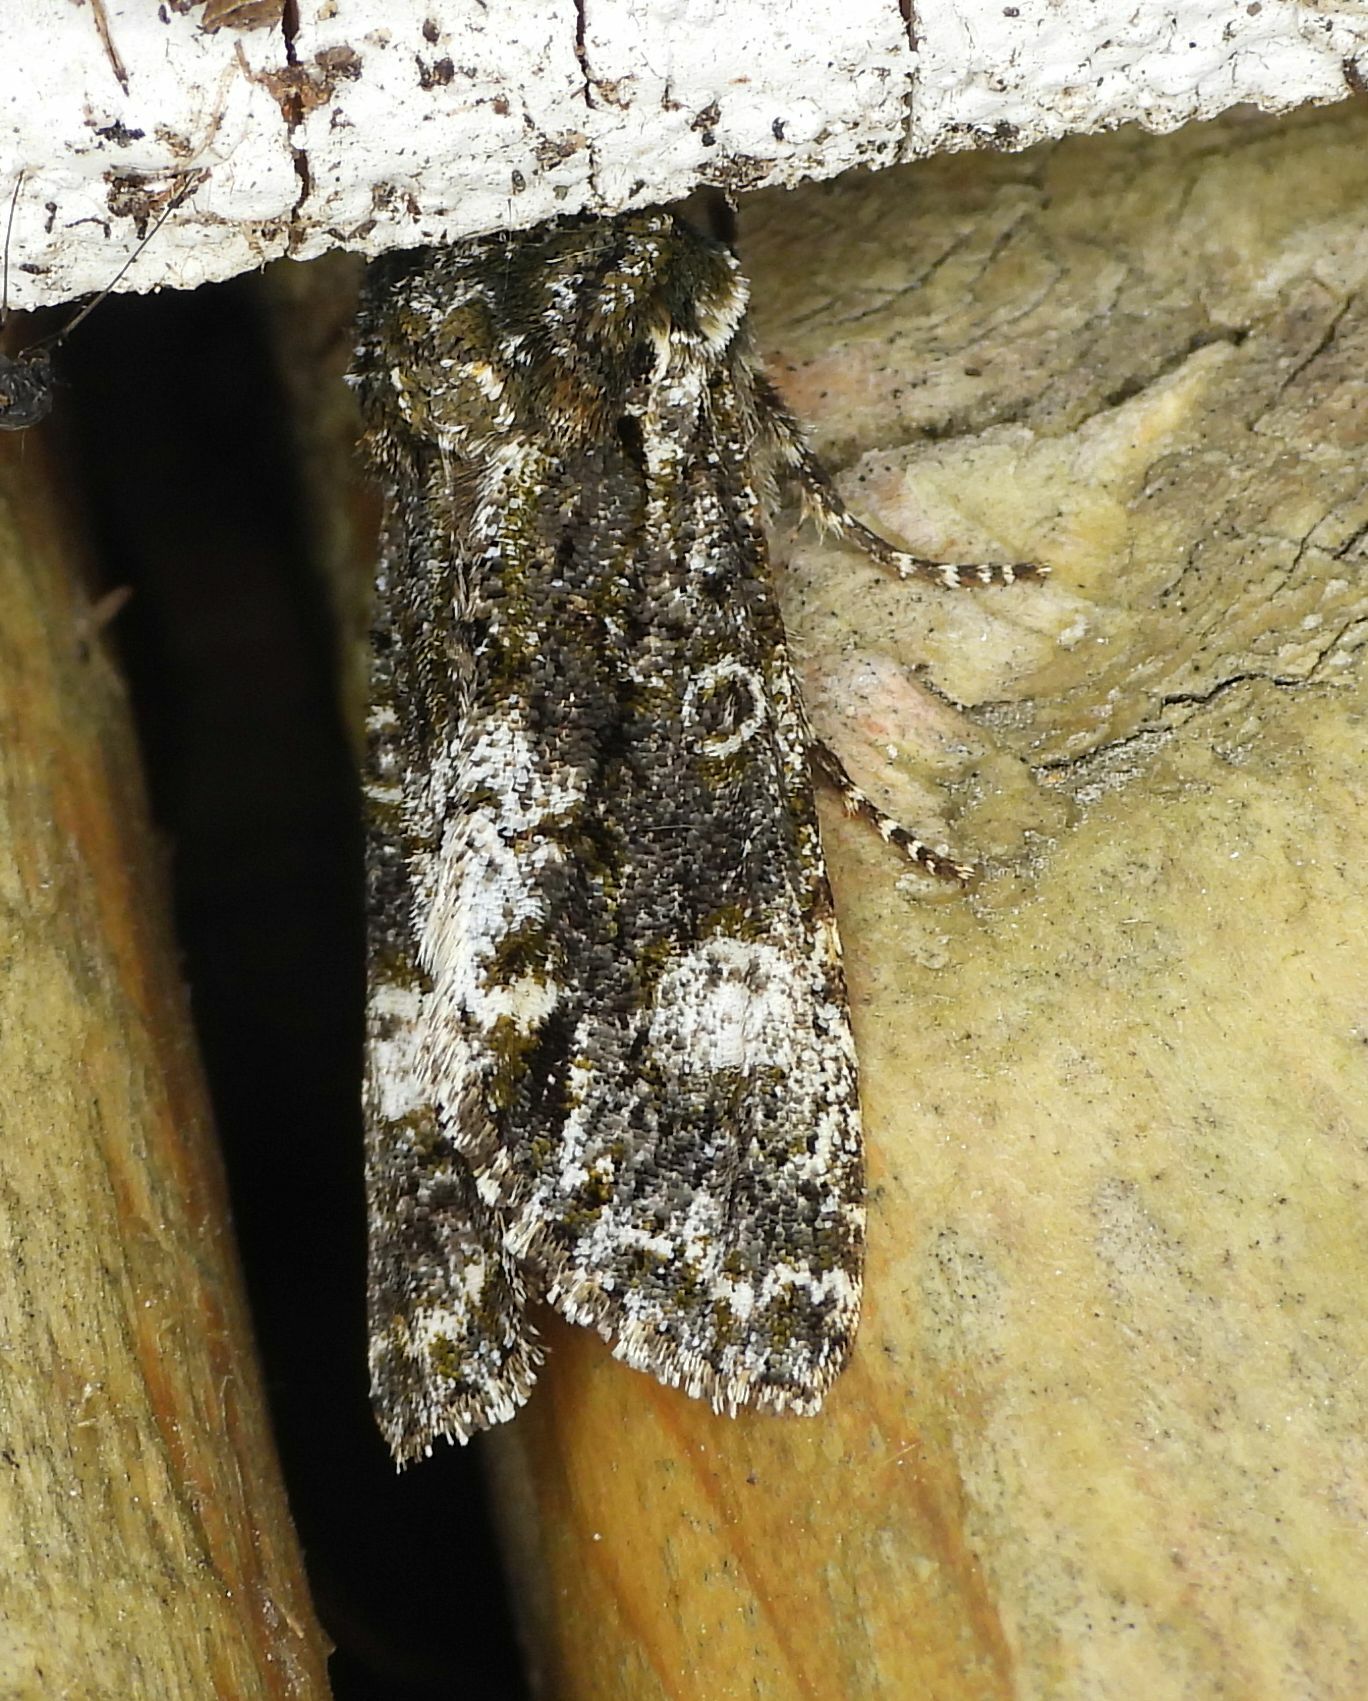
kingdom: Animalia
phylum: Arthropoda
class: Insecta
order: Lepidoptera
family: Noctuidae
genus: Psaphida
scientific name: Psaphida grotei
